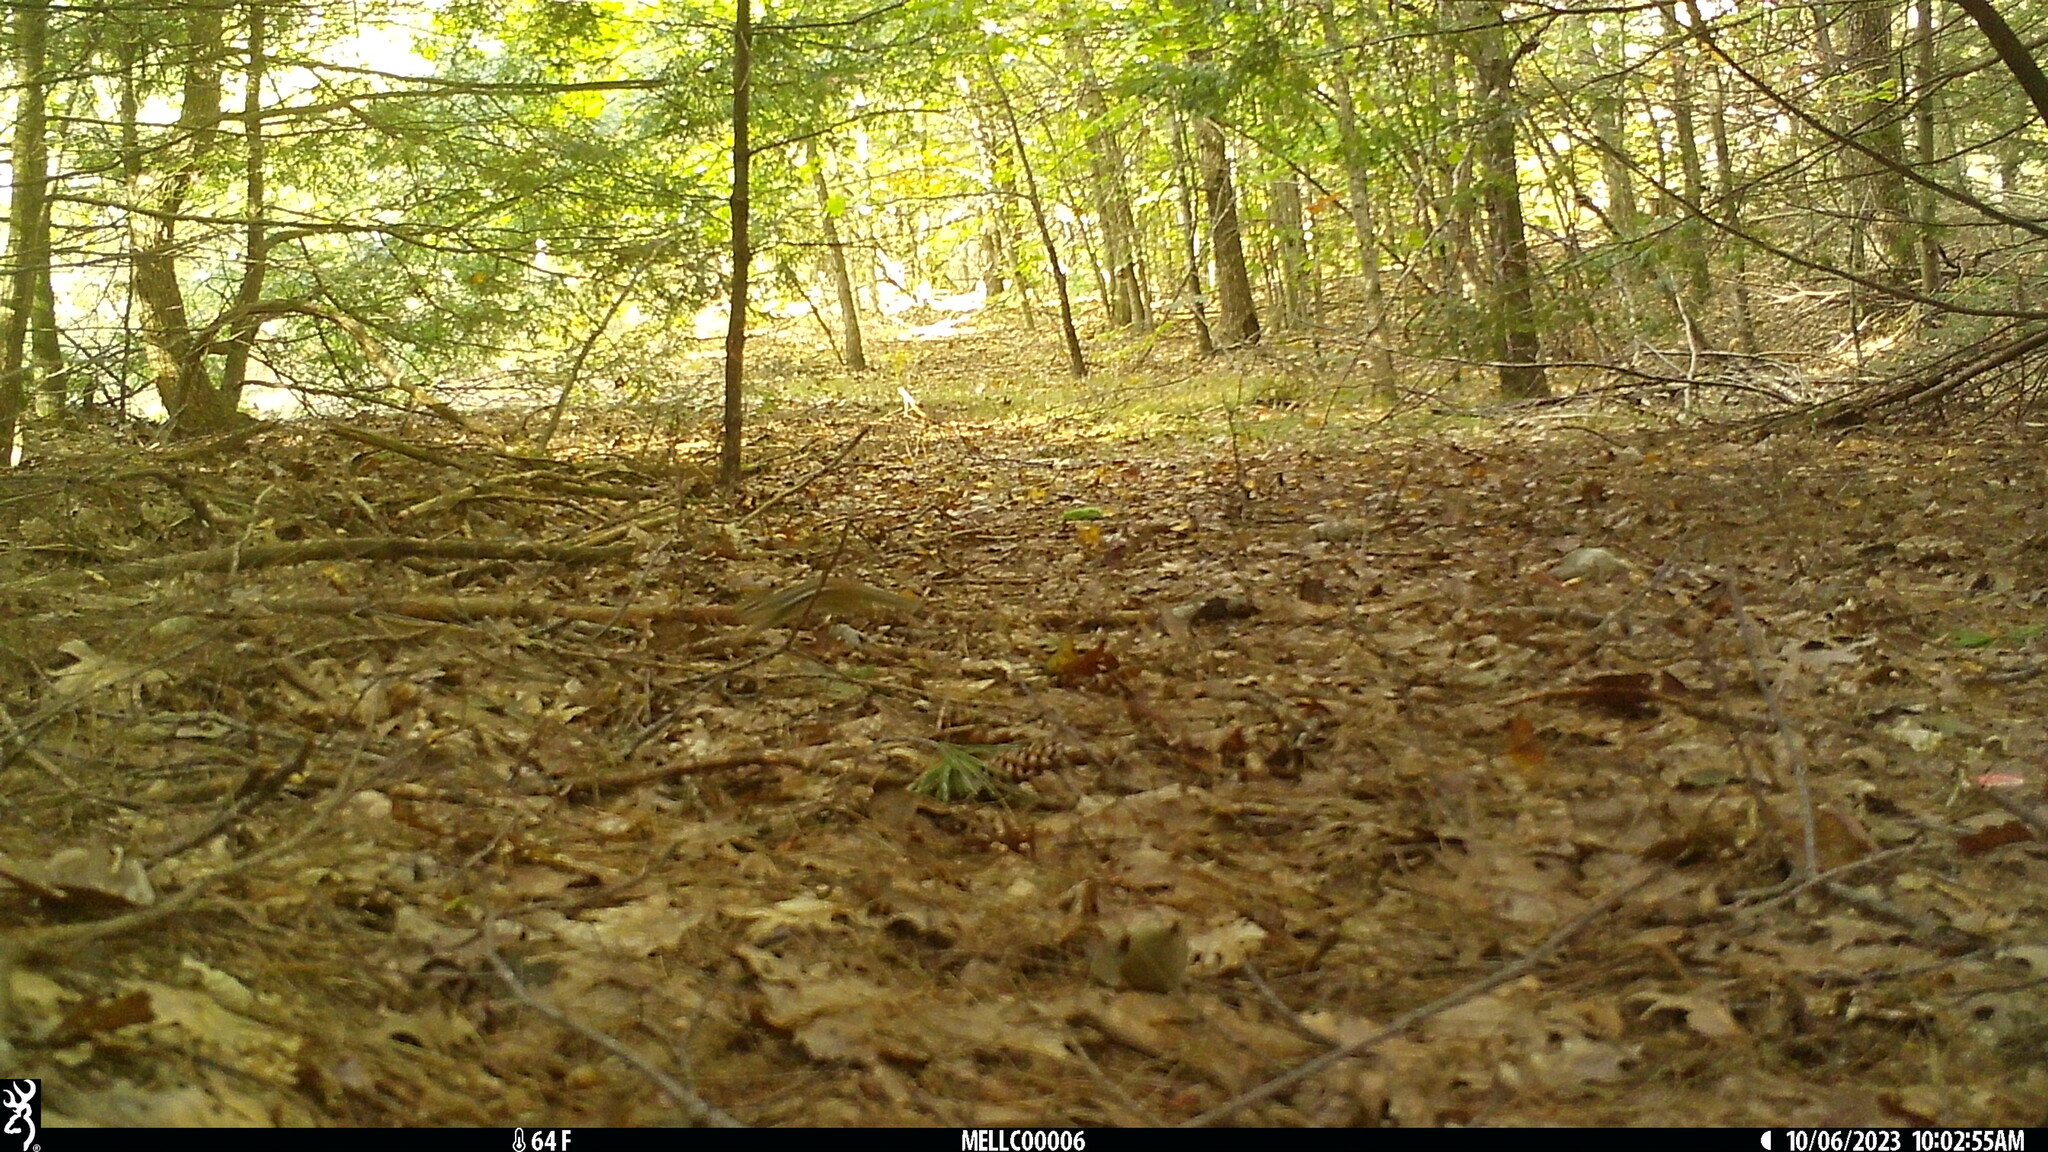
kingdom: Animalia
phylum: Chordata
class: Mammalia
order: Rodentia
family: Sciuridae
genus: Tamias
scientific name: Tamias striatus
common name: Eastern chipmunk
